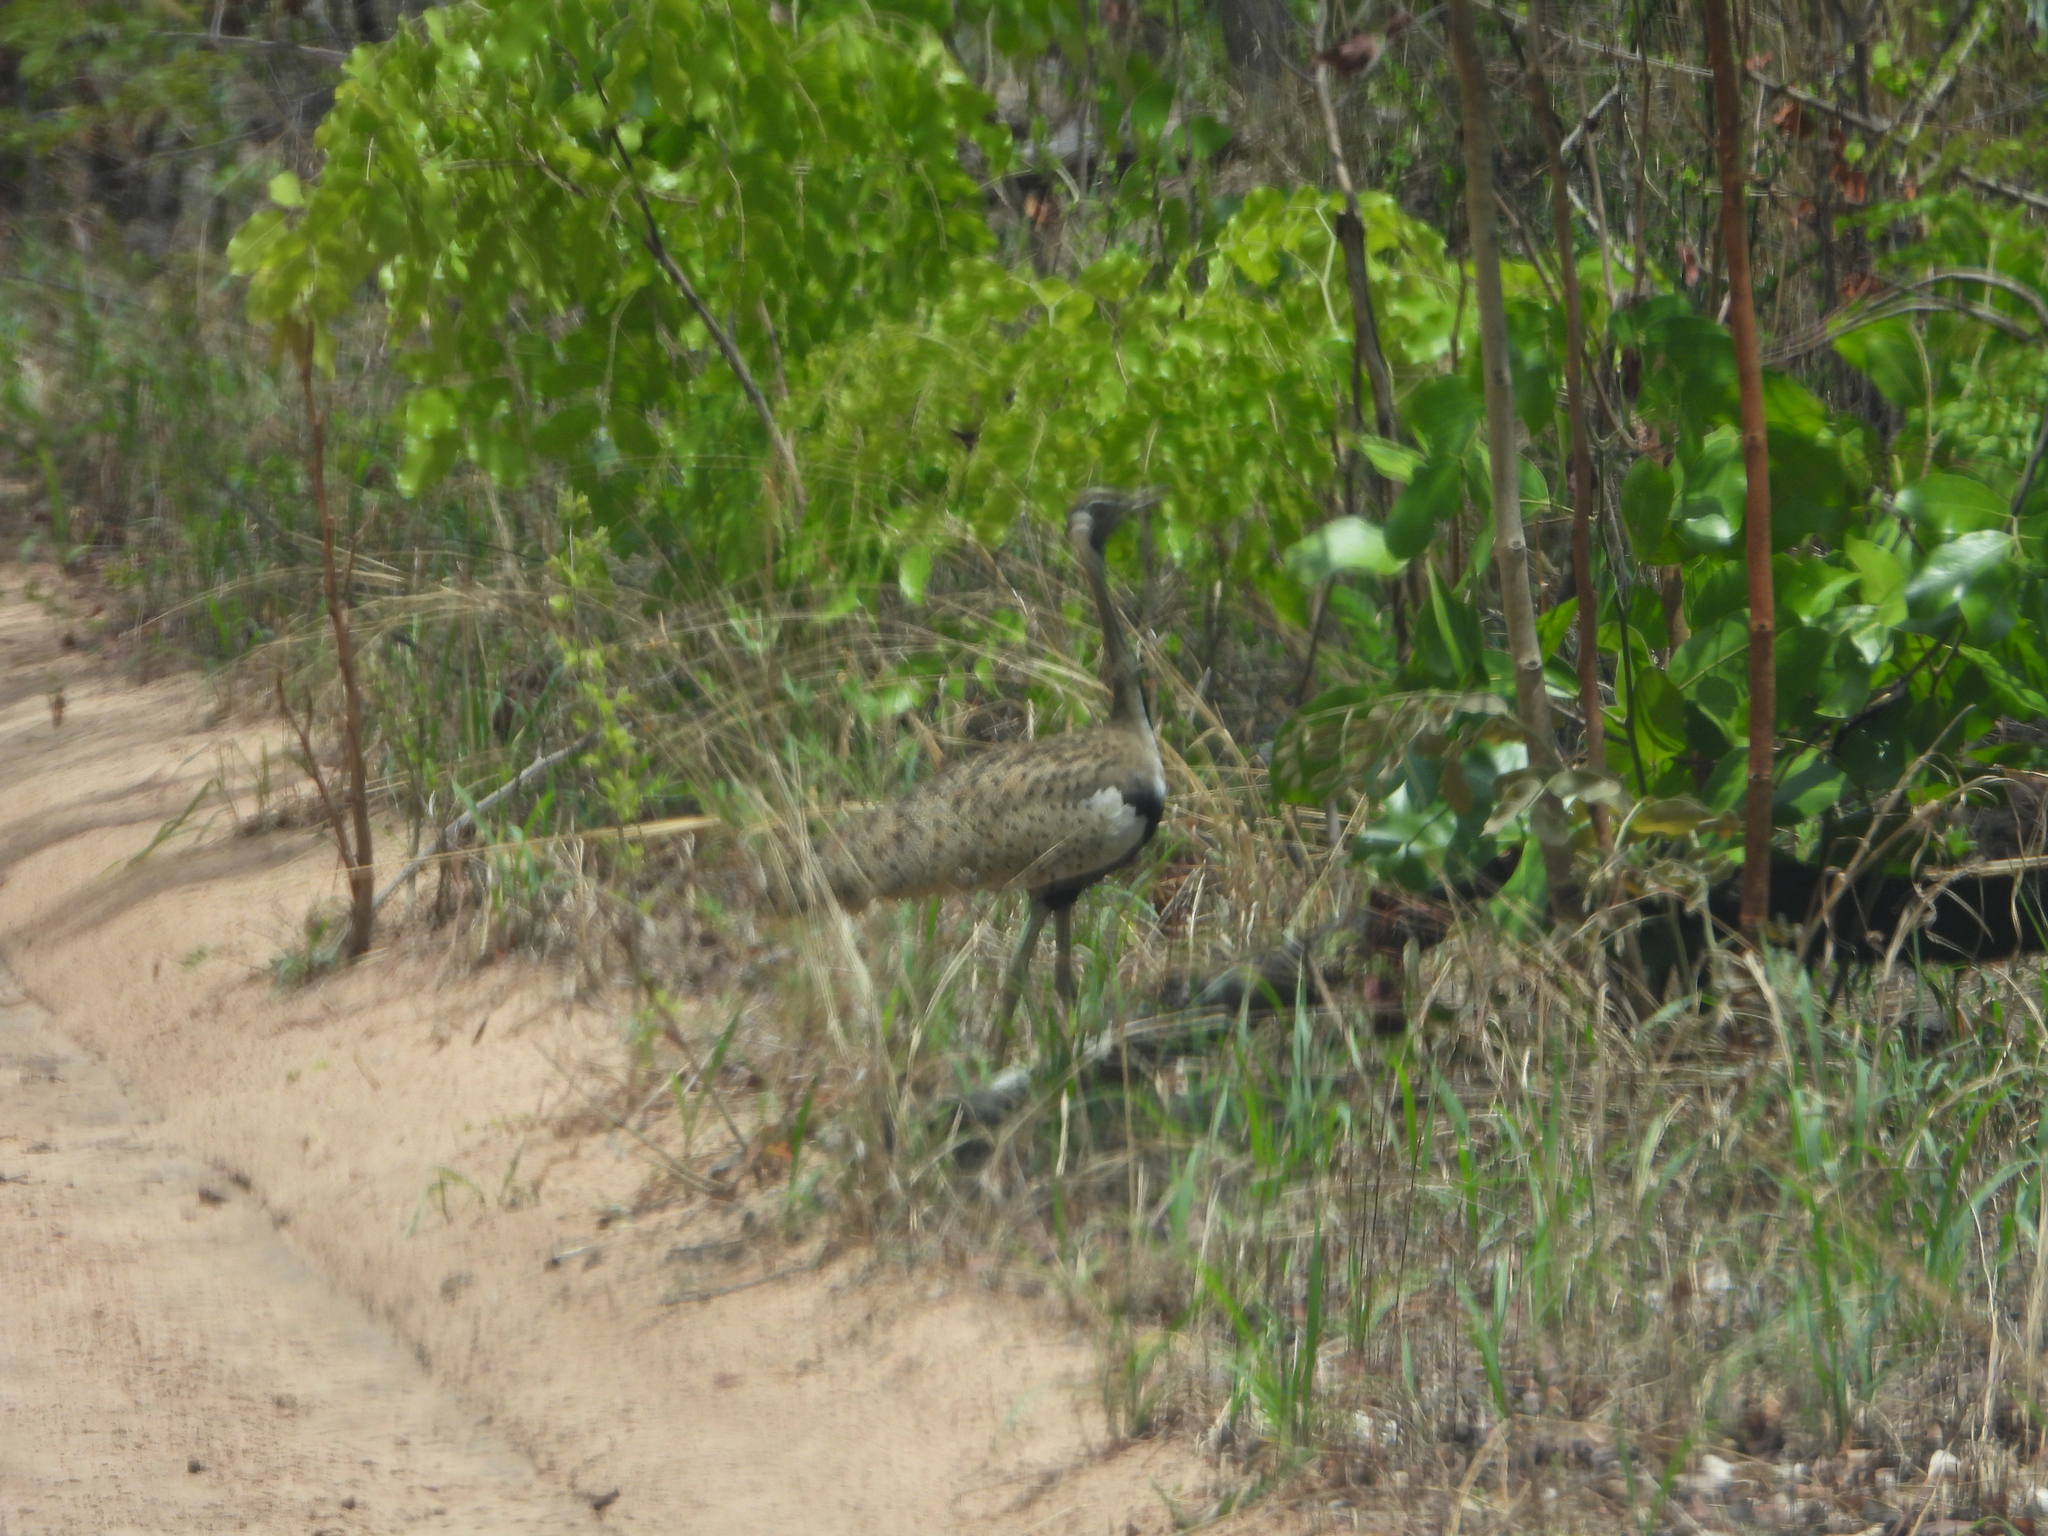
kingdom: Animalia
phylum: Chordata
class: Aves
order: Otidiformes
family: Otididae
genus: Lissotis
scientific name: Lissotis melanogaster
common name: Black-bellied bustard
